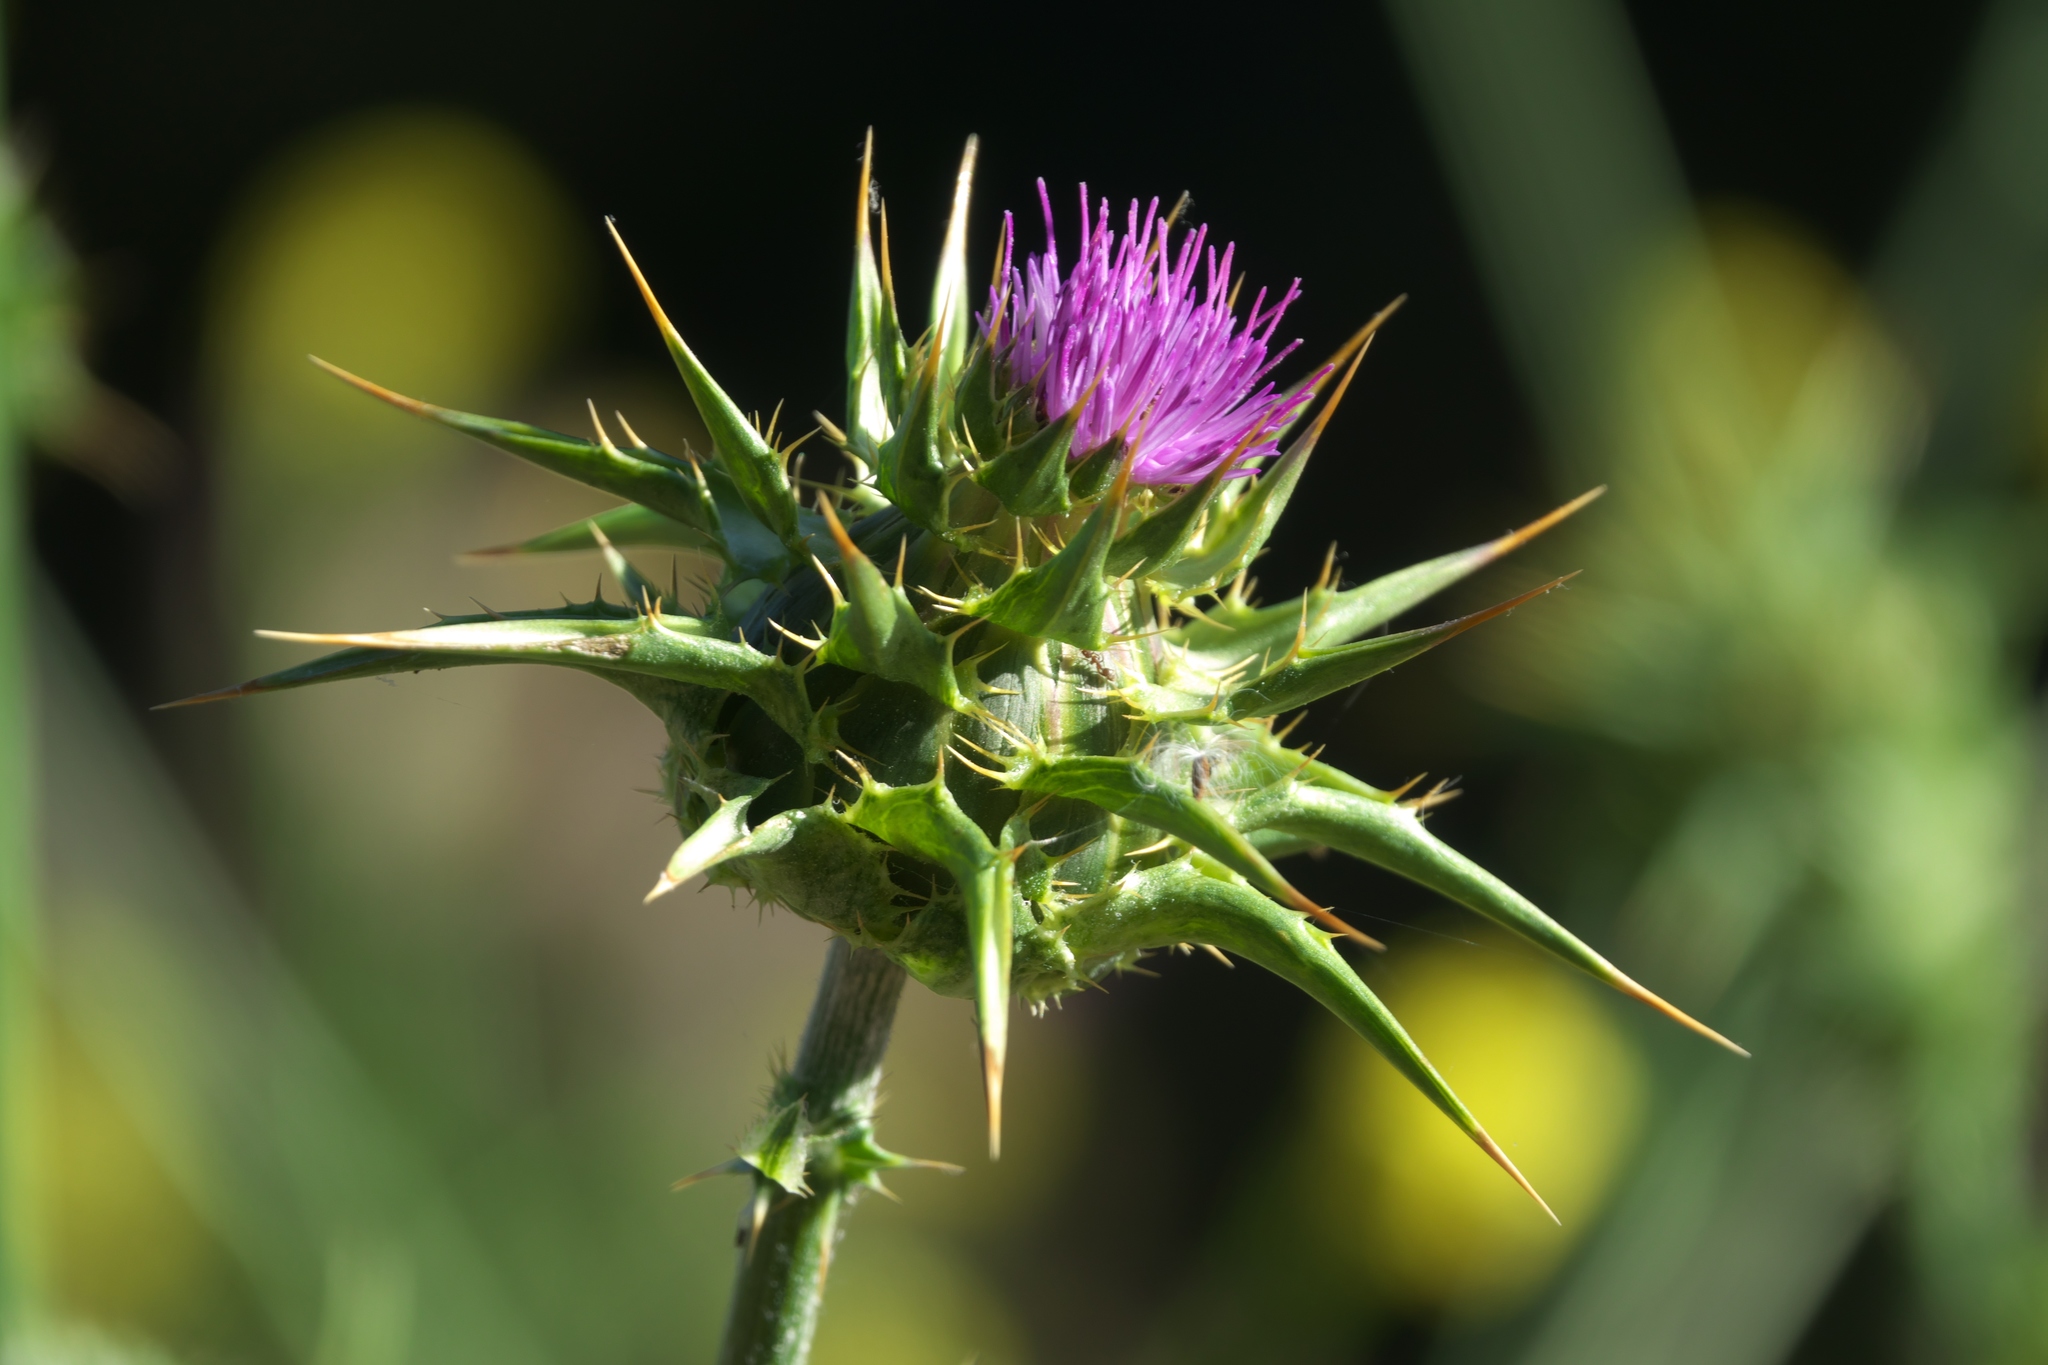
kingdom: Plantae
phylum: Tracheophyta
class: Magnoliopsida
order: Asterales
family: Asteraceae
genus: Silybum
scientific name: Silybum marianum
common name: Milk thistle
